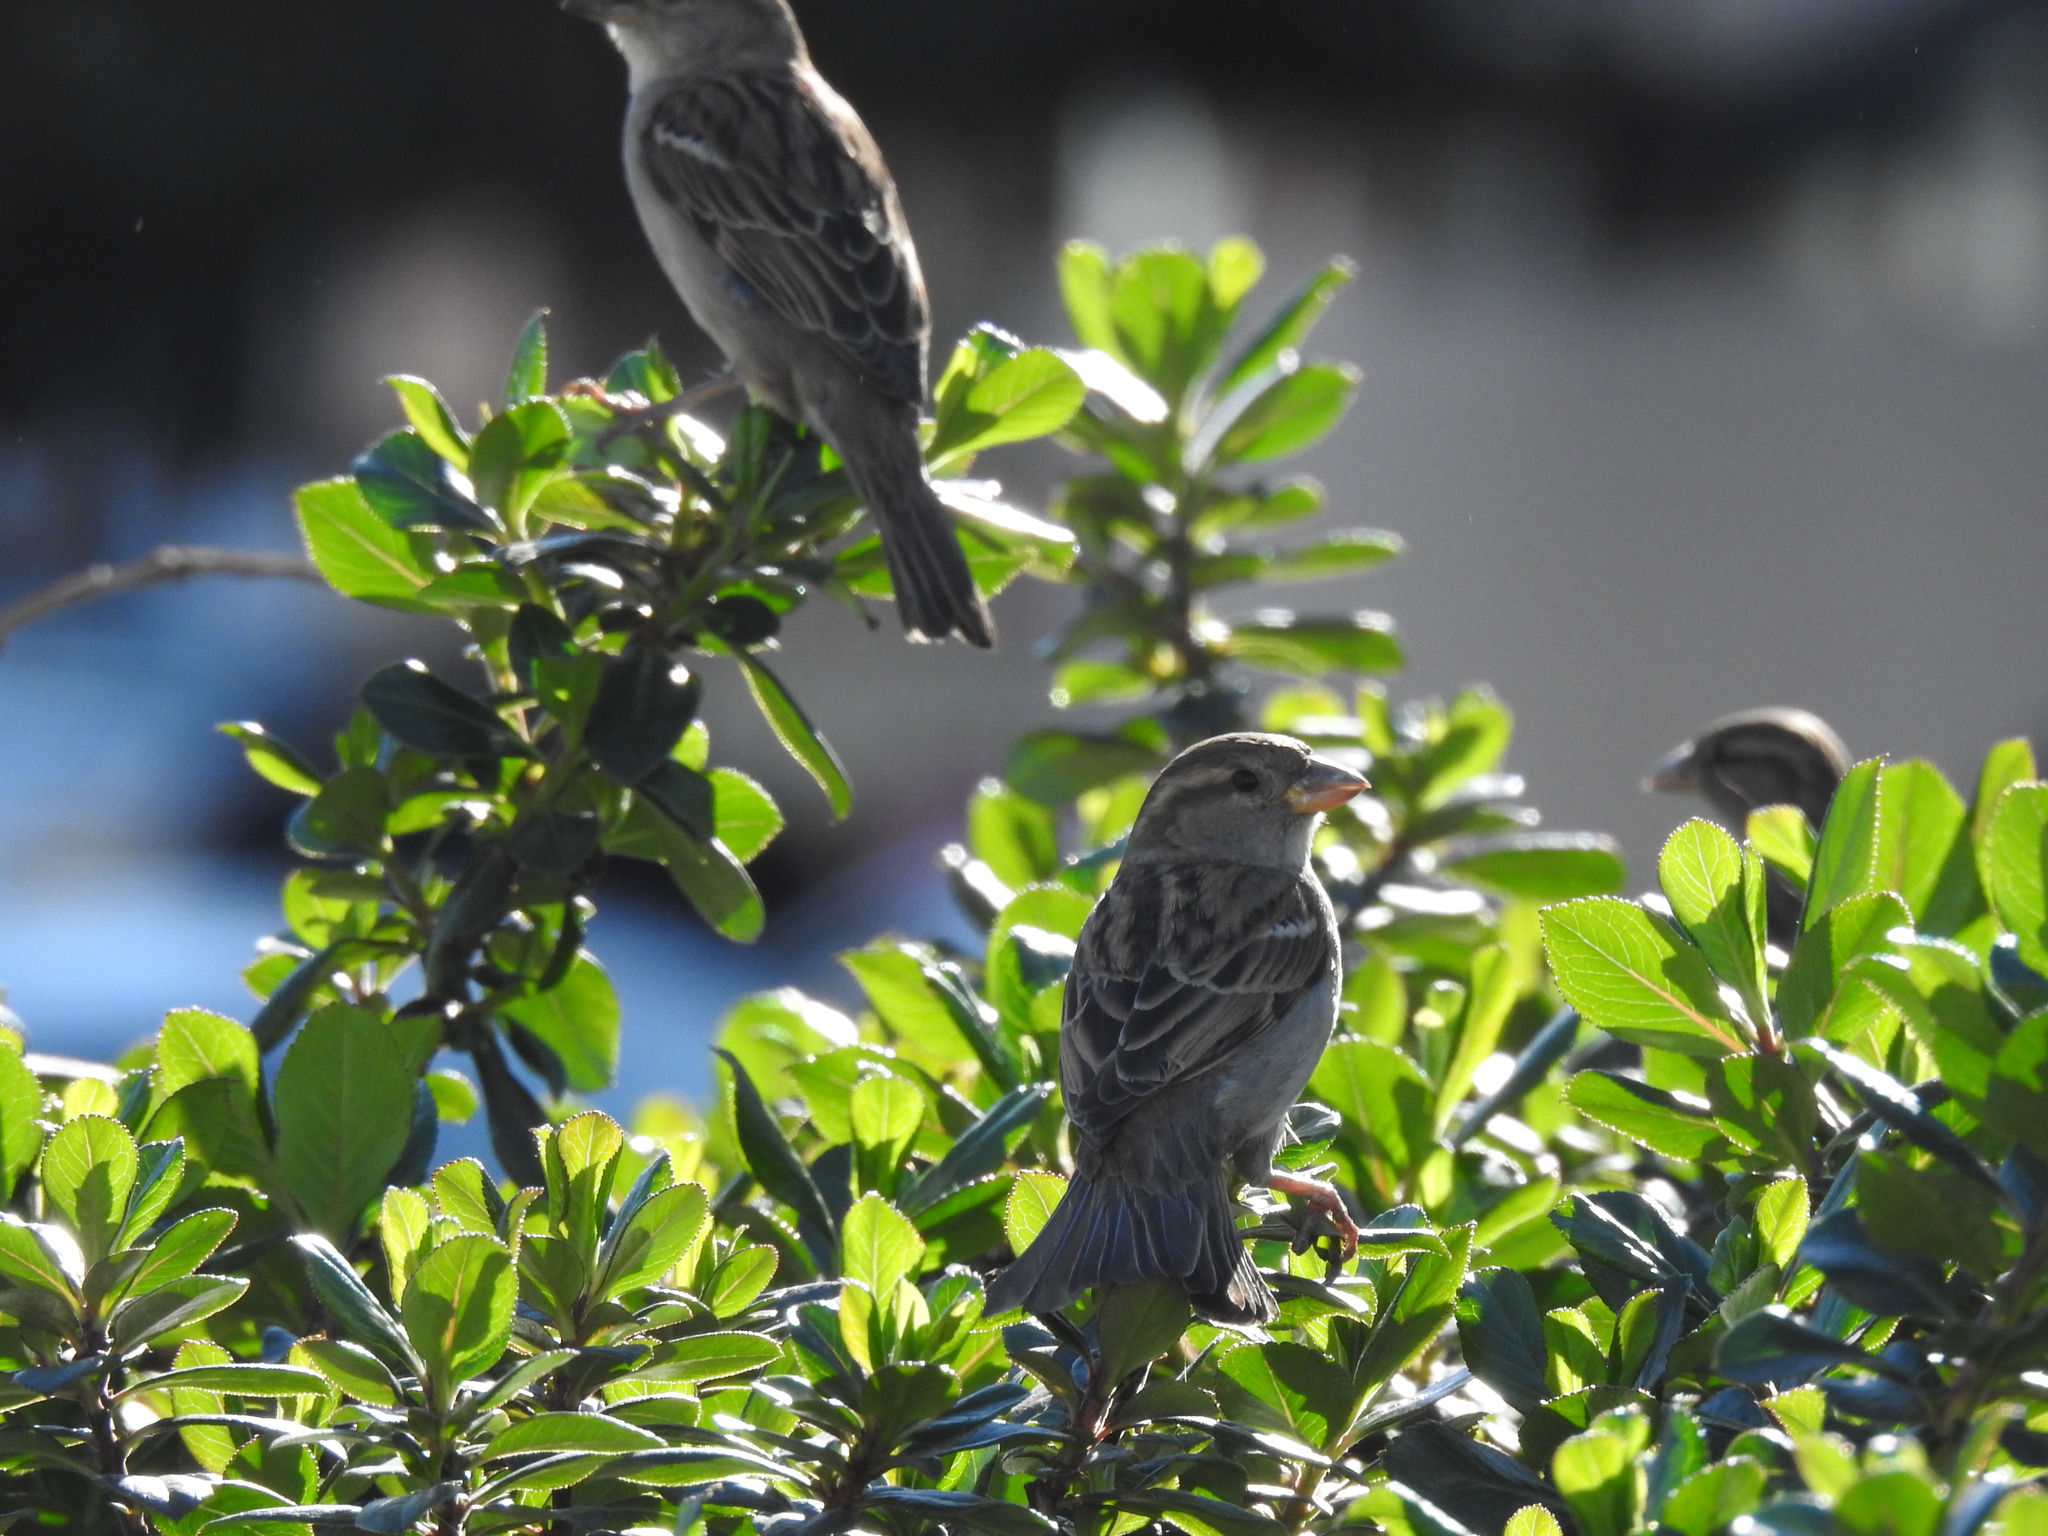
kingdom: Animalia
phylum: Chordata
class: Aves
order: Passeriformes
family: Passeridae
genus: Passer
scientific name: Passer domesticus
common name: House sparrow
